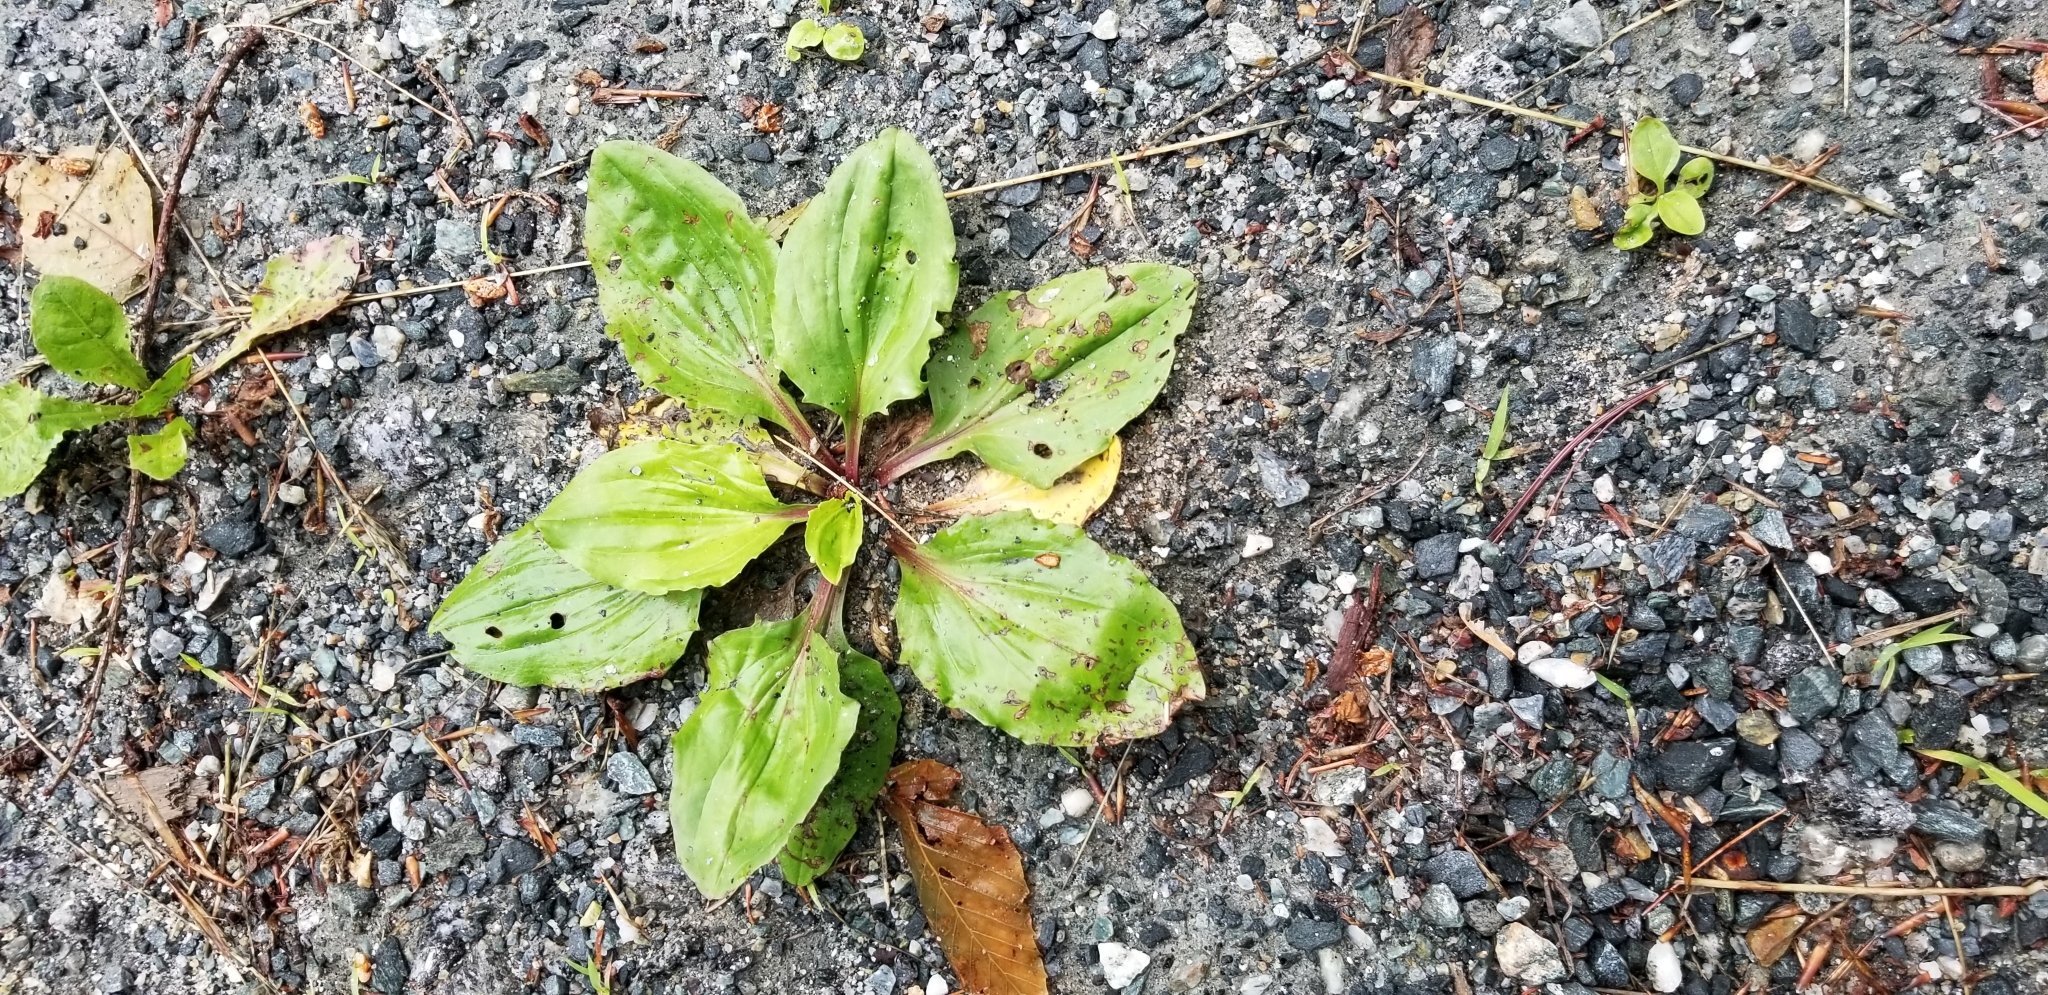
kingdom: Plantae
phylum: Tracheophyta
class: Magnoliopsida
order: Lamiales
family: Plantaginaceae
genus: Plantago
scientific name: Plantago rugelii
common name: American plantain
